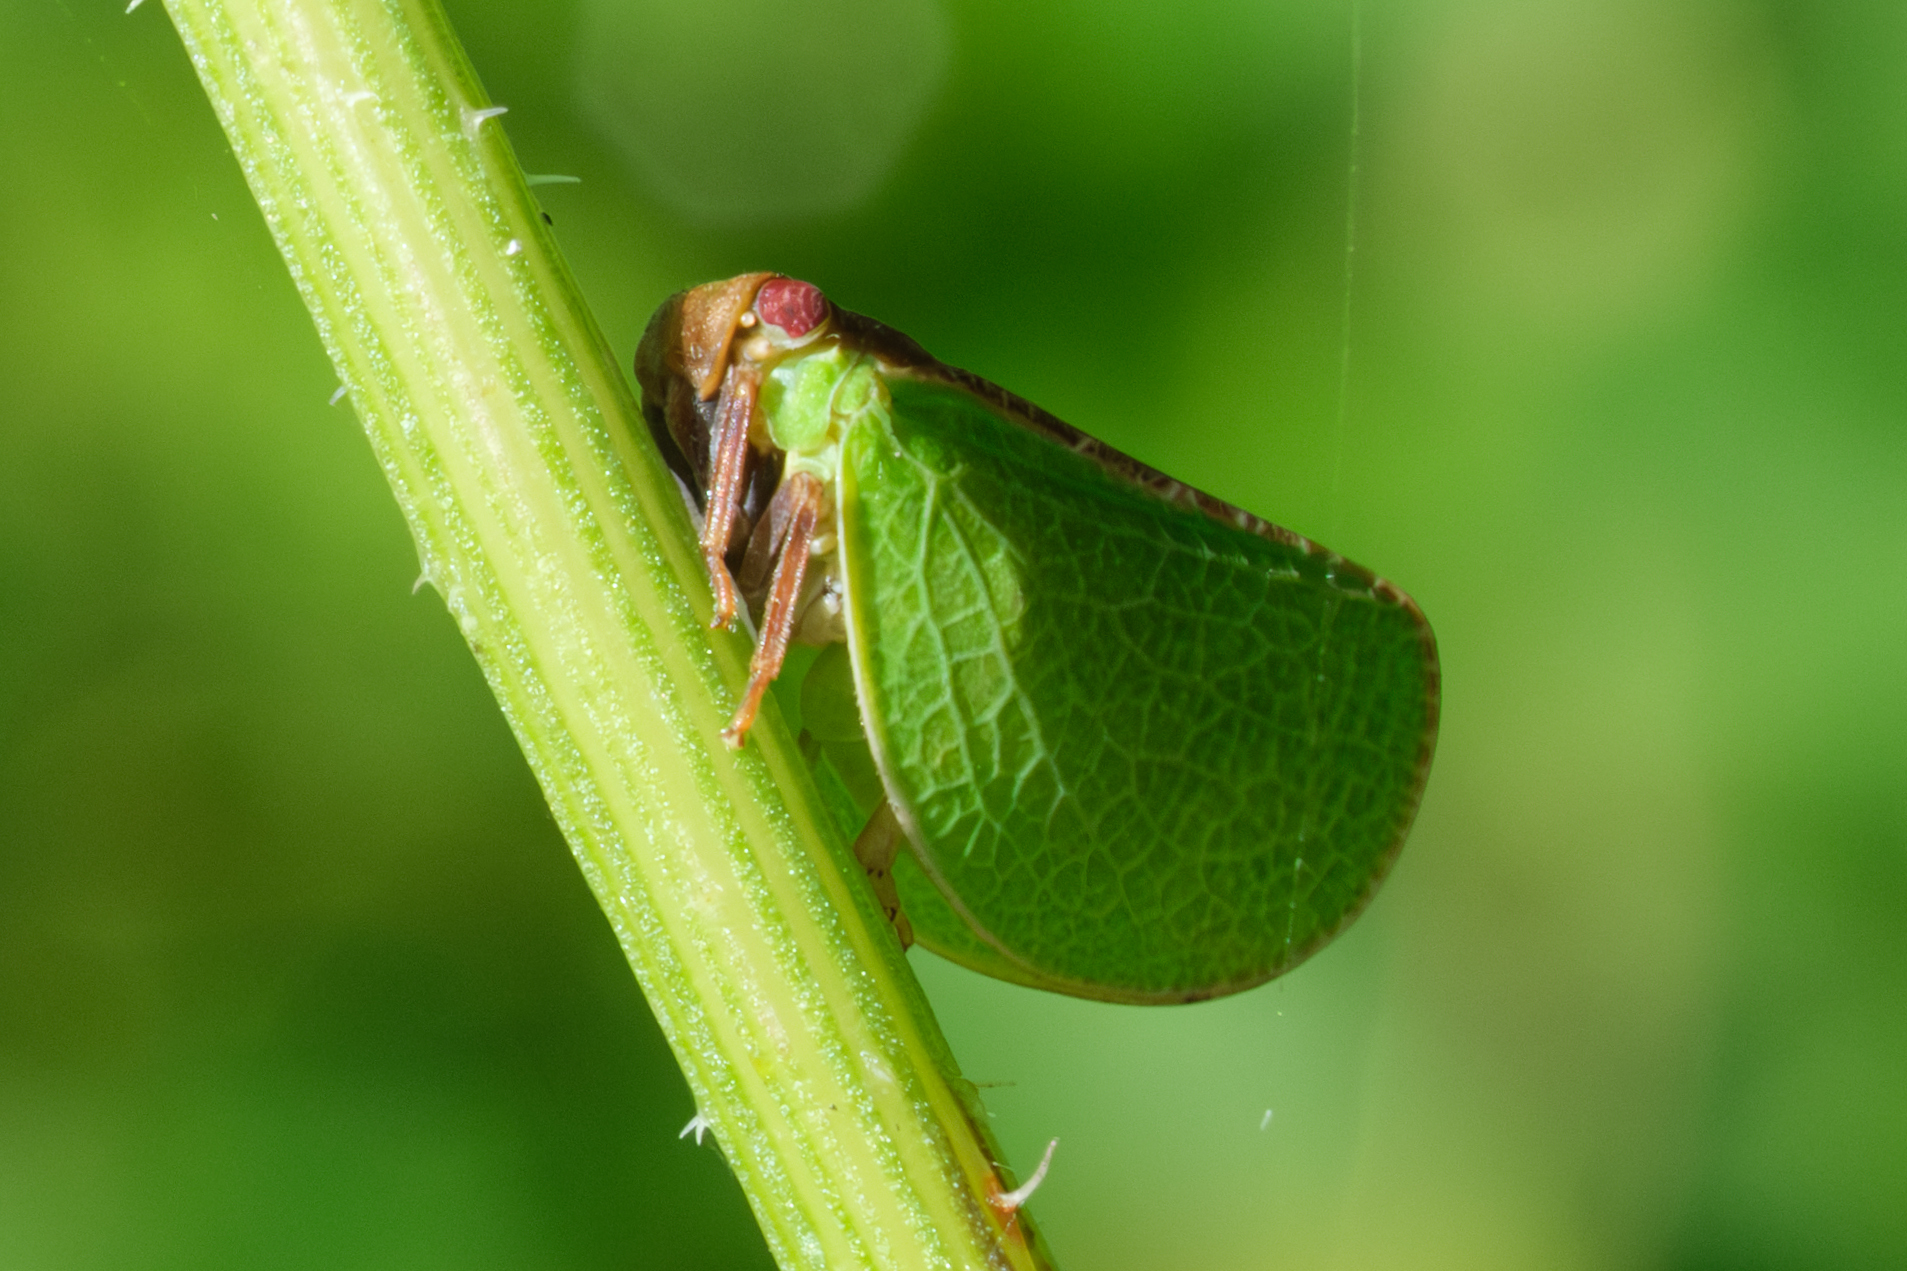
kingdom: Animalia
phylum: Arthropoda
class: Insecta
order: Hemiptera
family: Acanaloniidae
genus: Acanalonia
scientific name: Acanalonia bivittata
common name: Two-striped planthopper
